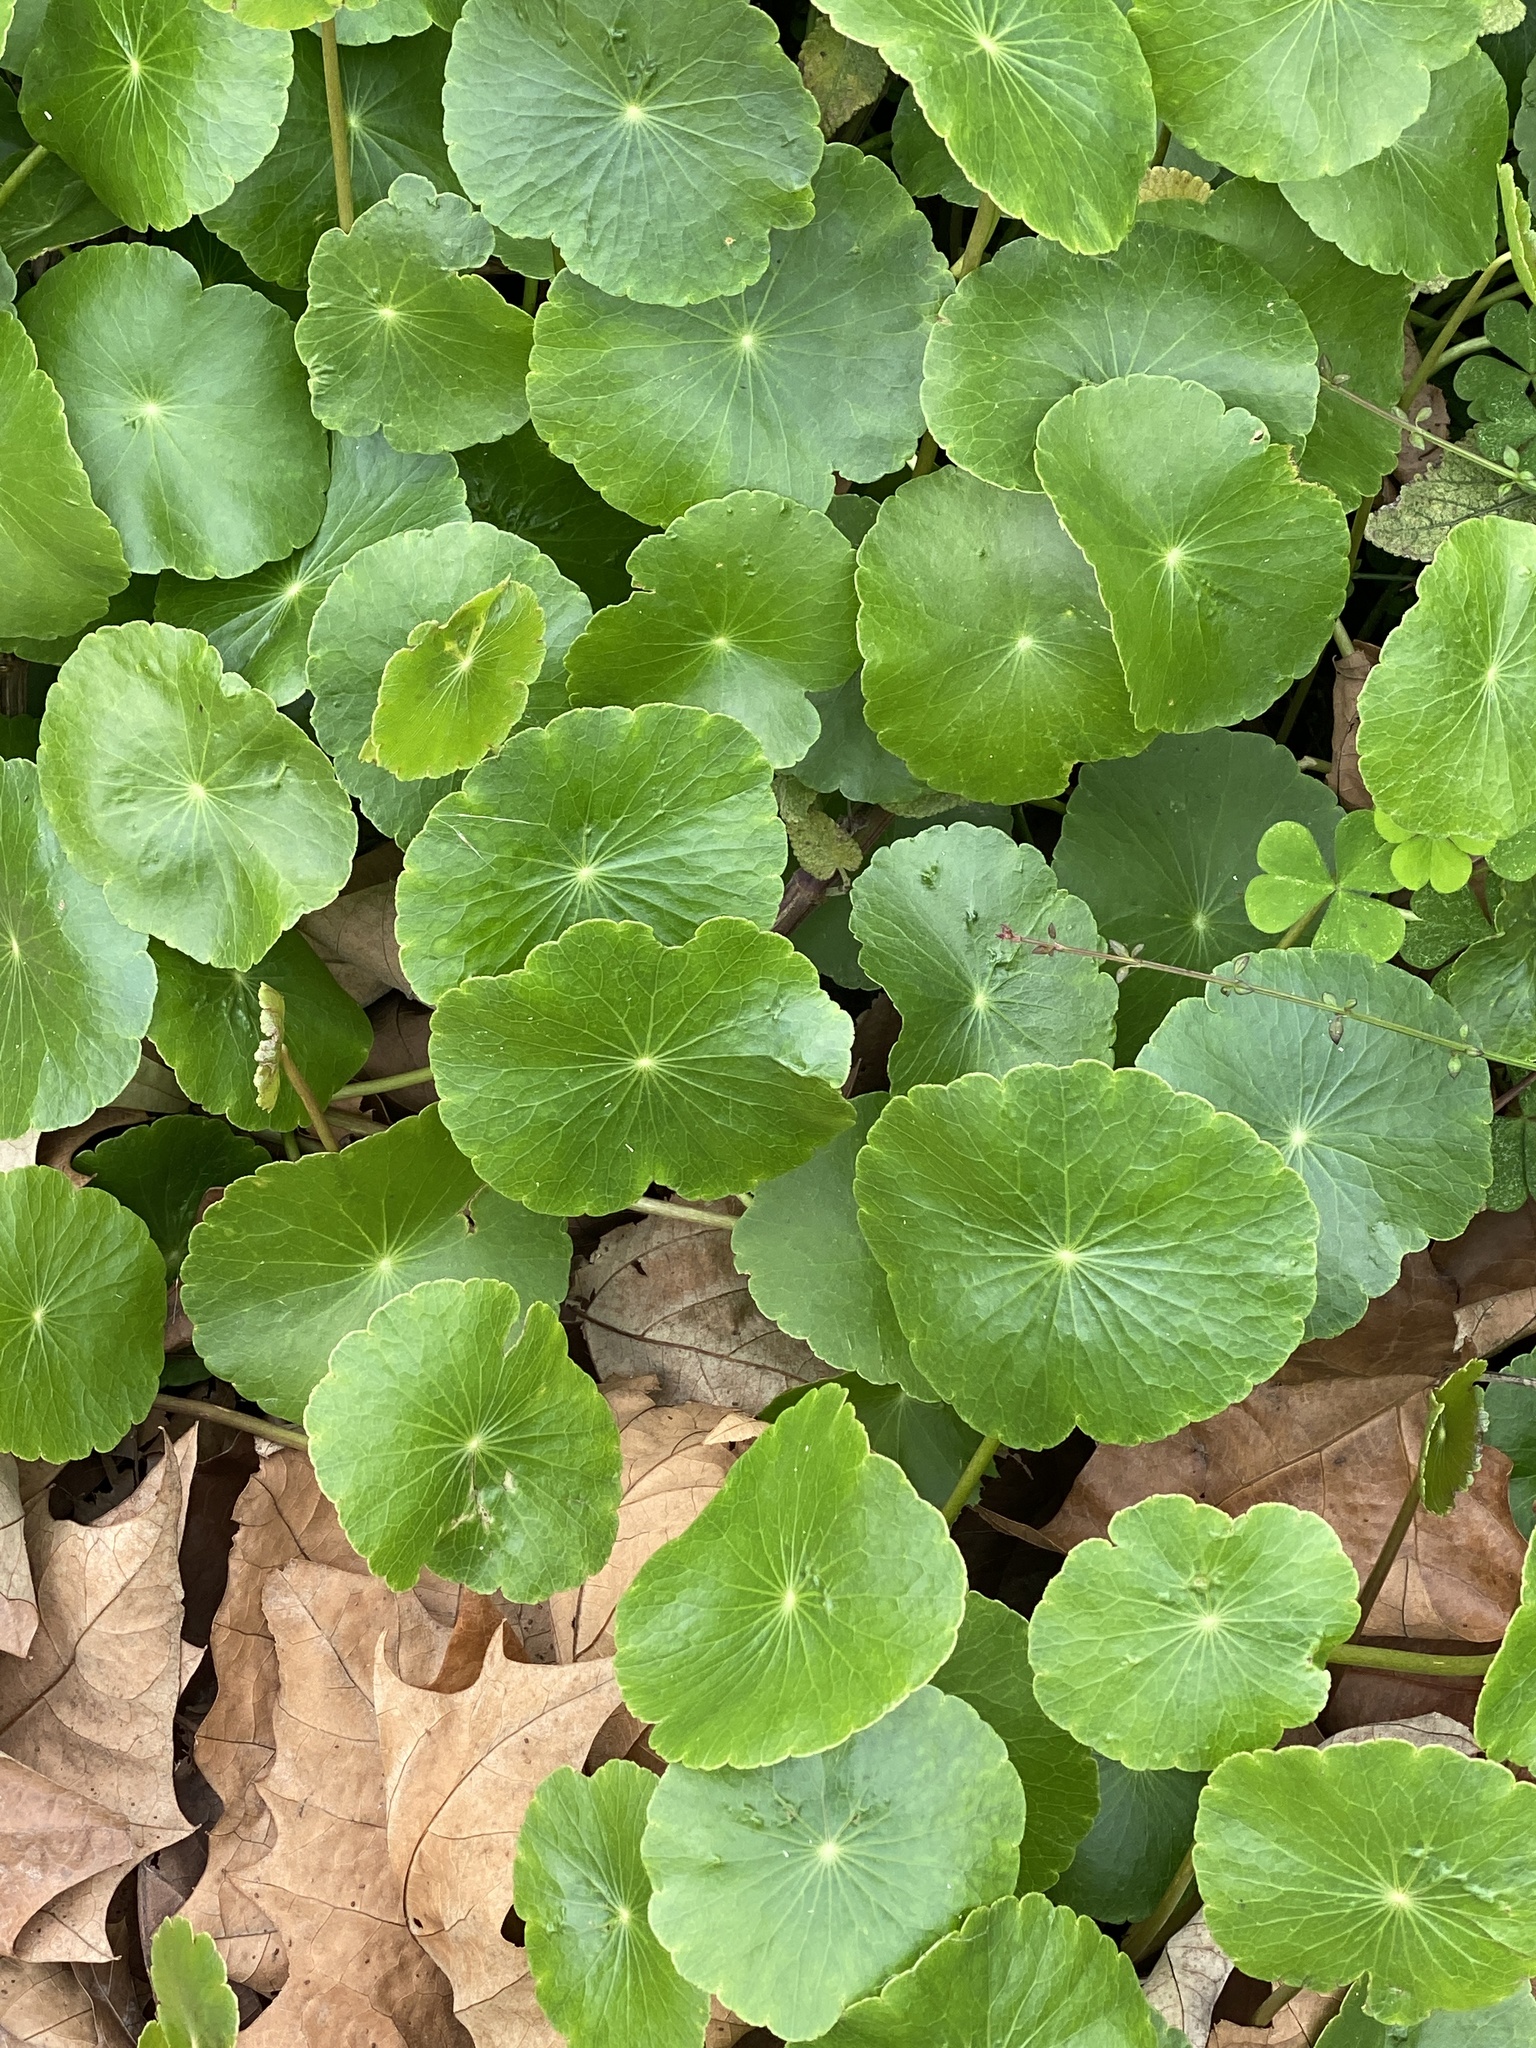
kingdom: Plantae
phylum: Tracheophyta
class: Magnoliopsida
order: Apiales
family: Araliaceae
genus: Hydrocotyle
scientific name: Hydrocotyle umbellata
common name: Water pennywort
